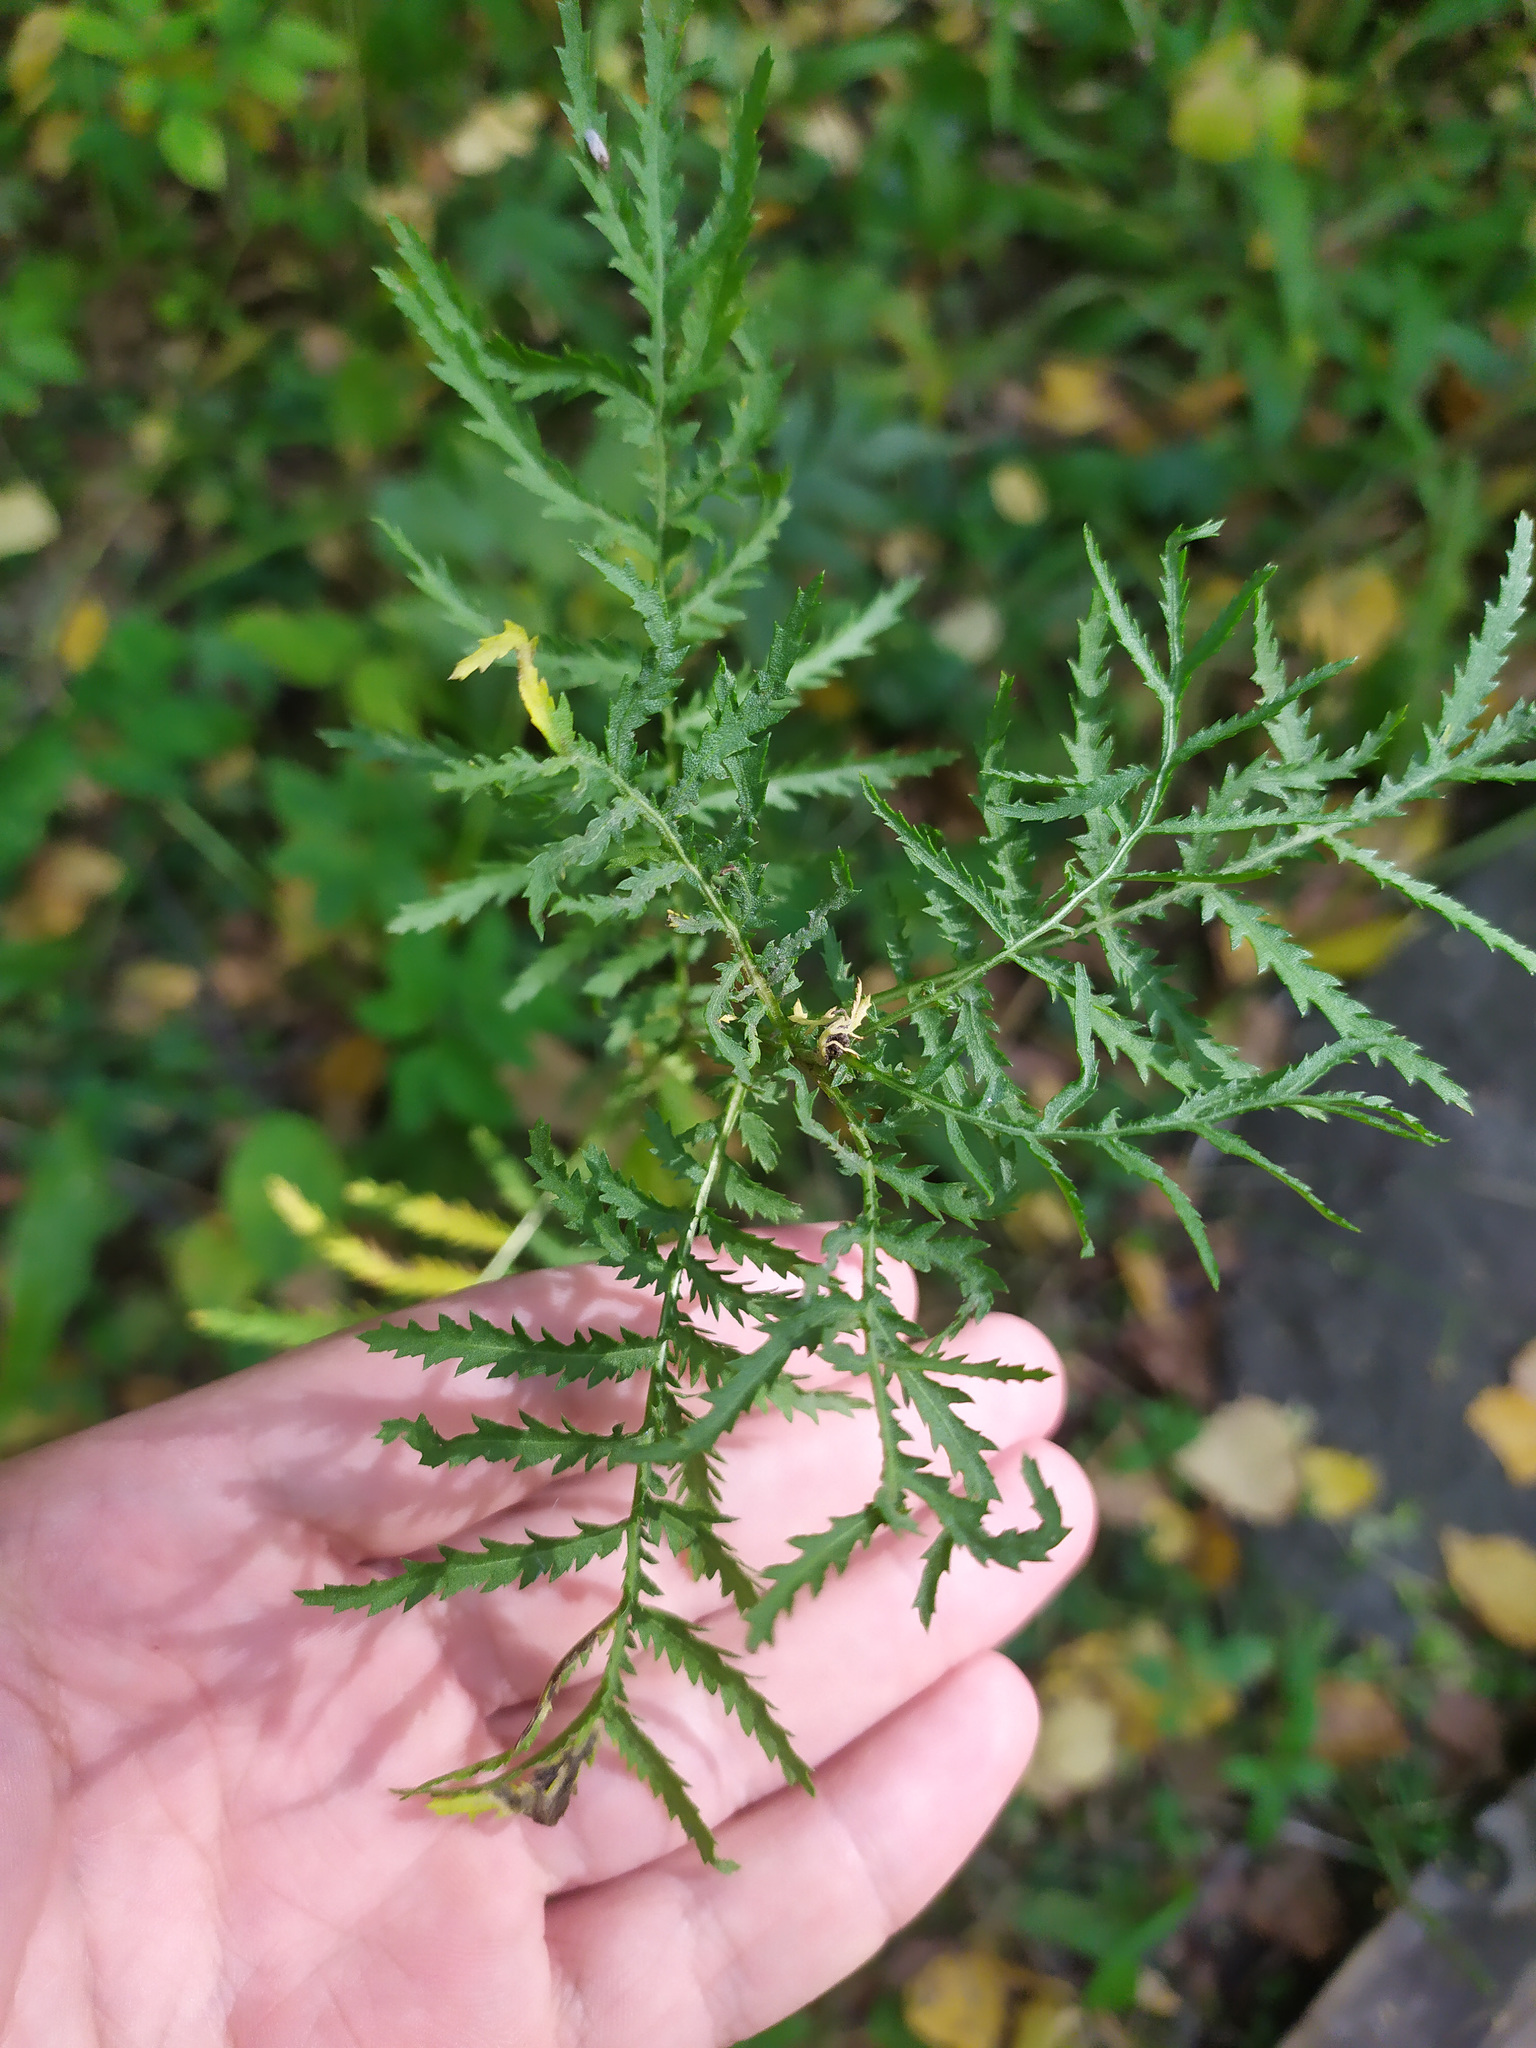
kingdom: Plantae
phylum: Tracheophyta
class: Magnoliopsida
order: Asterales
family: Asteraceae
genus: Tanacetum
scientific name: Tanacetum vulgare
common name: Common tansy
